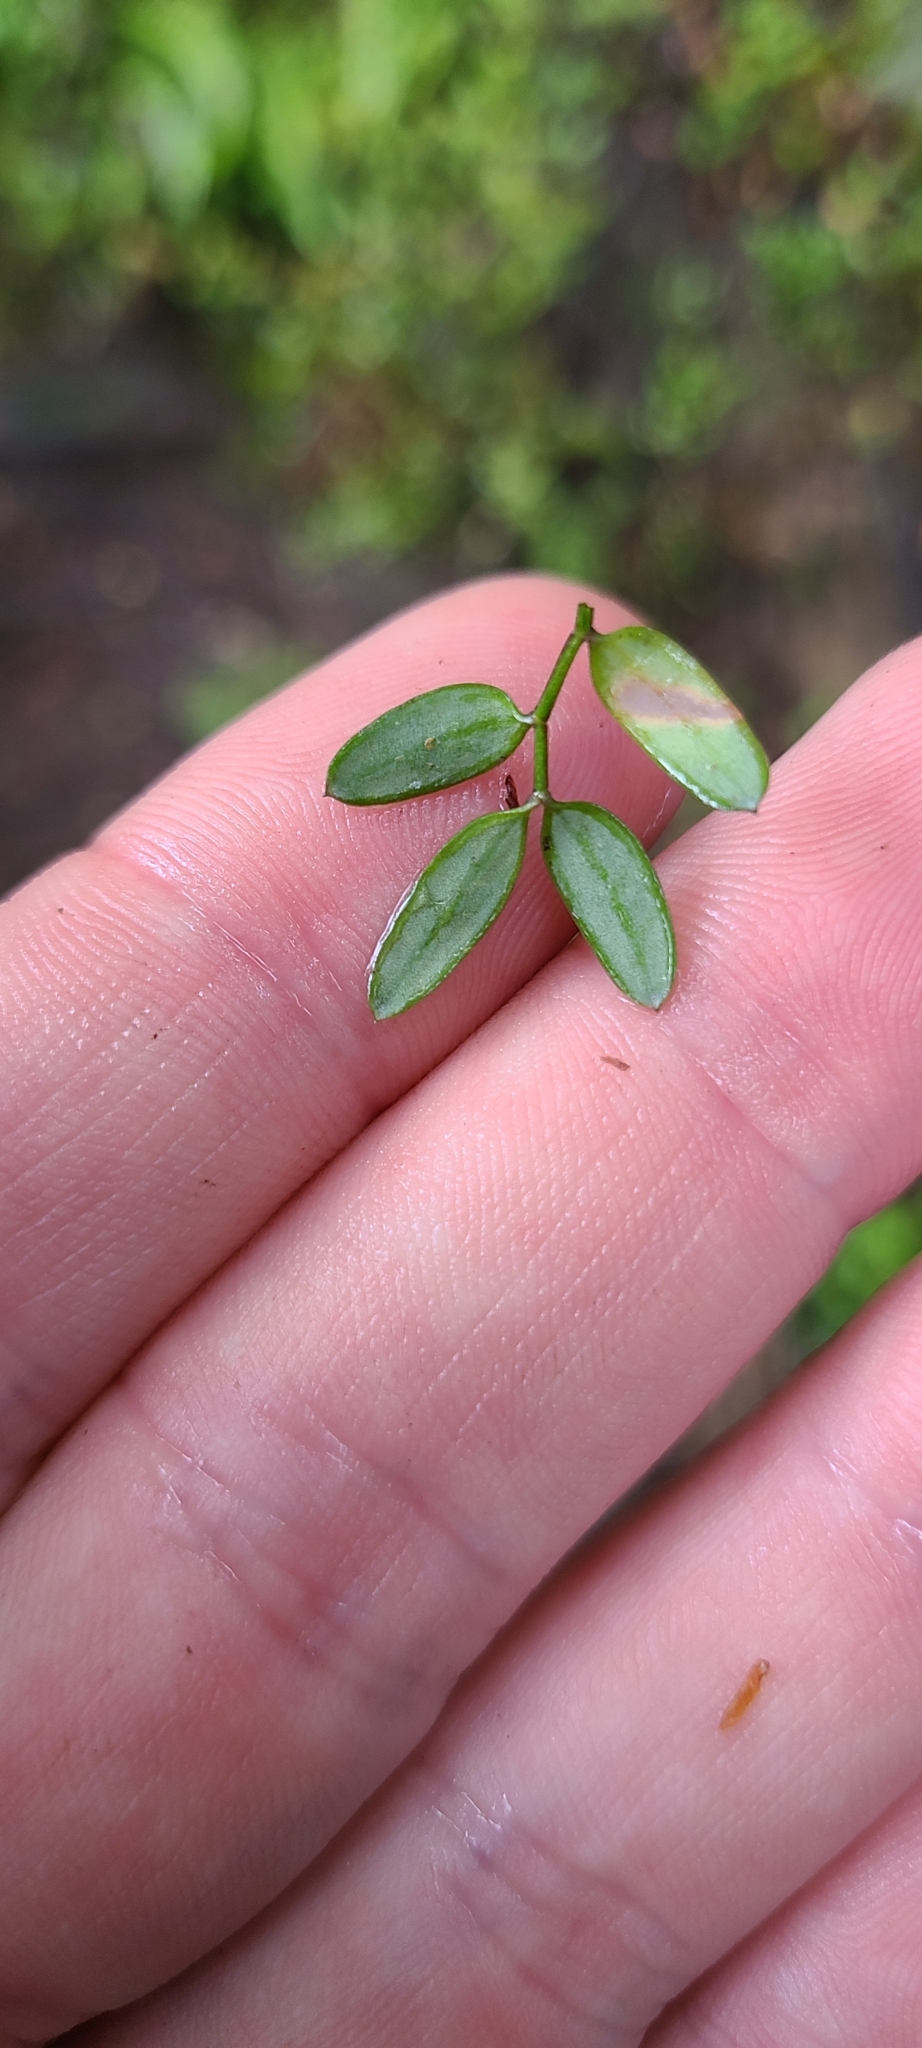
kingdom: Plantae
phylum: Tracheophyta
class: Liliopsida
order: Liliales
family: Alstroemeriaceae
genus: Luzuriaga
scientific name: Luzuriaga parviflora
